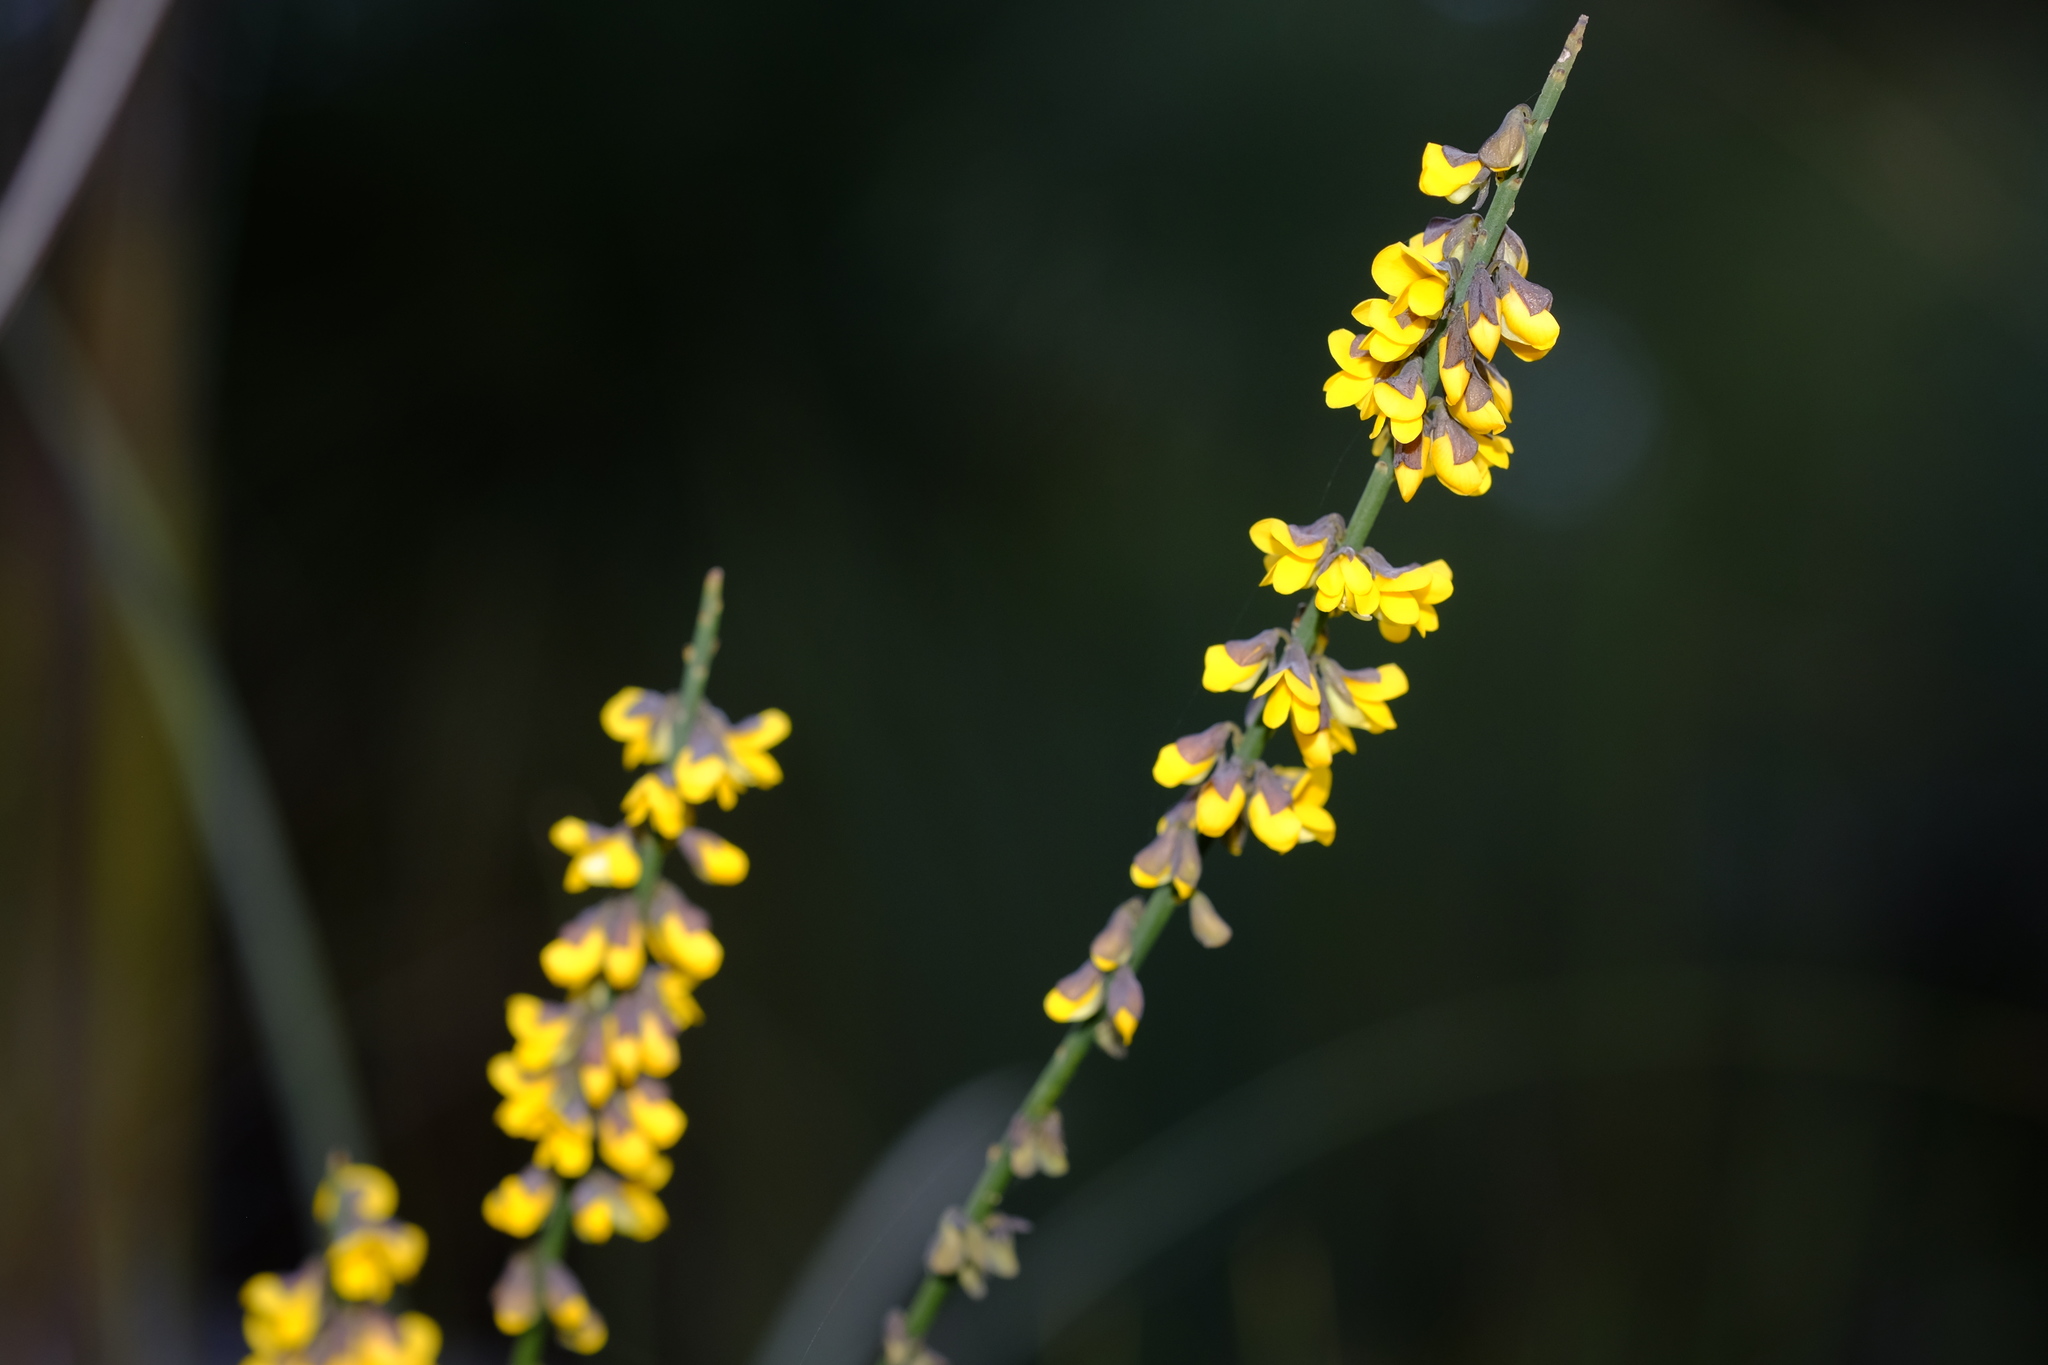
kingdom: Plantae
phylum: Tracheophyta
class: Magnoliopsida
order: Fabales
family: Fabaceae
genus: Sphaerolobium
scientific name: Sphaerolobium minus
